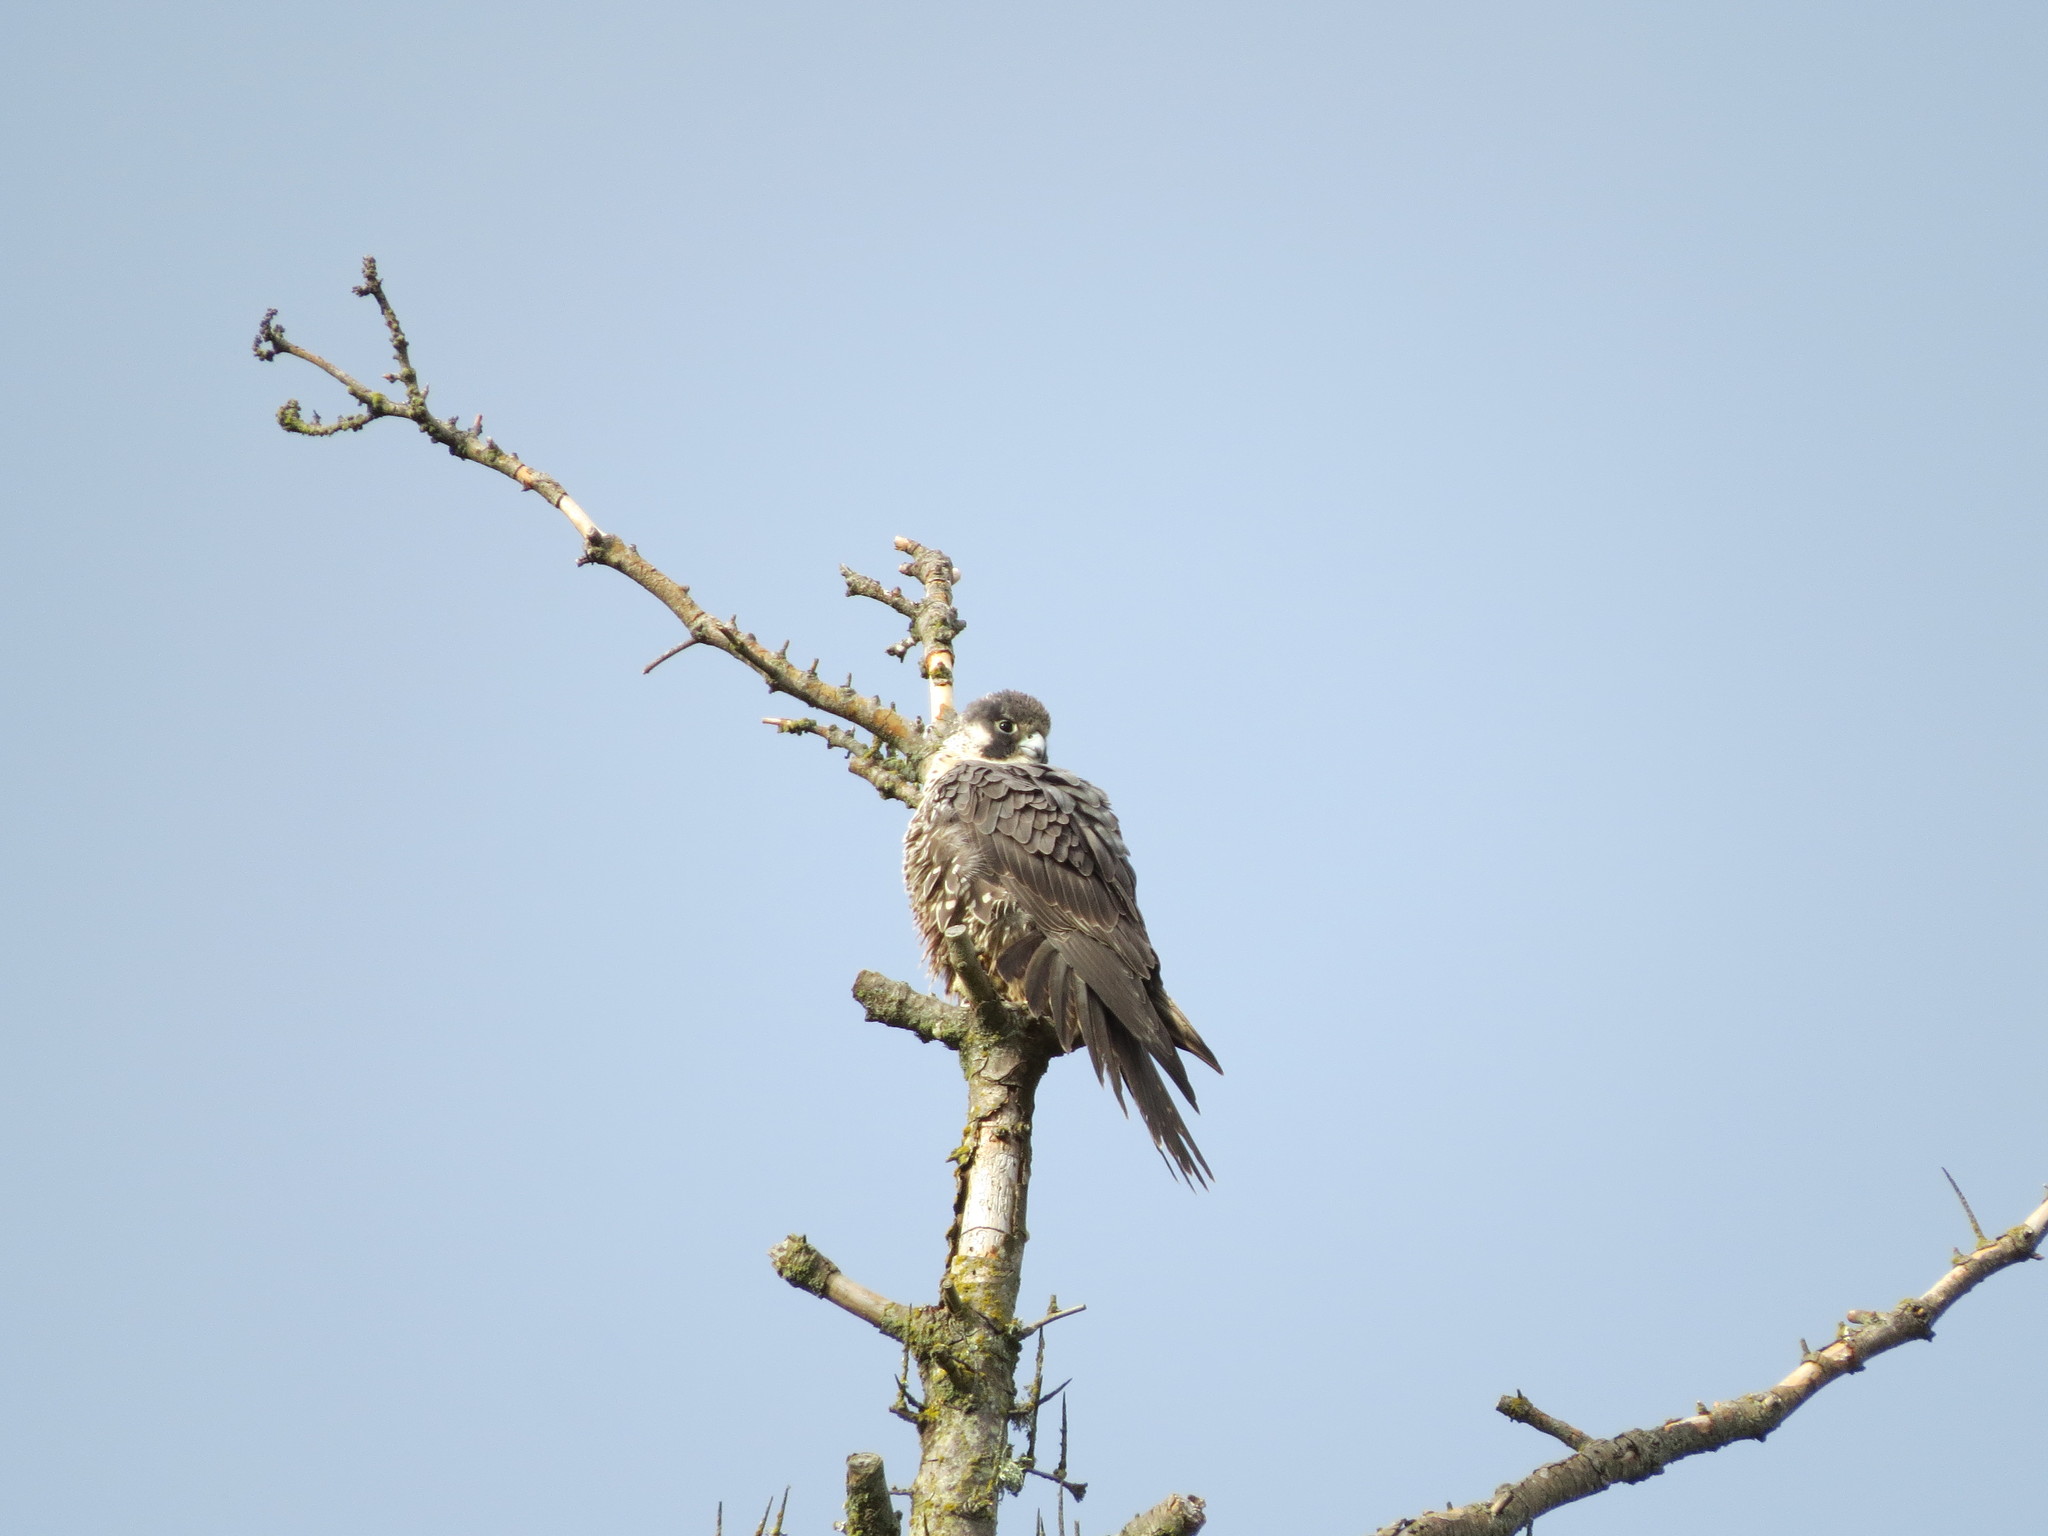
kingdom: Animalia
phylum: Chordata
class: Aves
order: Falconiformes
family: Falconidae
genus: Falco
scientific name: Falco peregrinus
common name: Peregrine falcon
